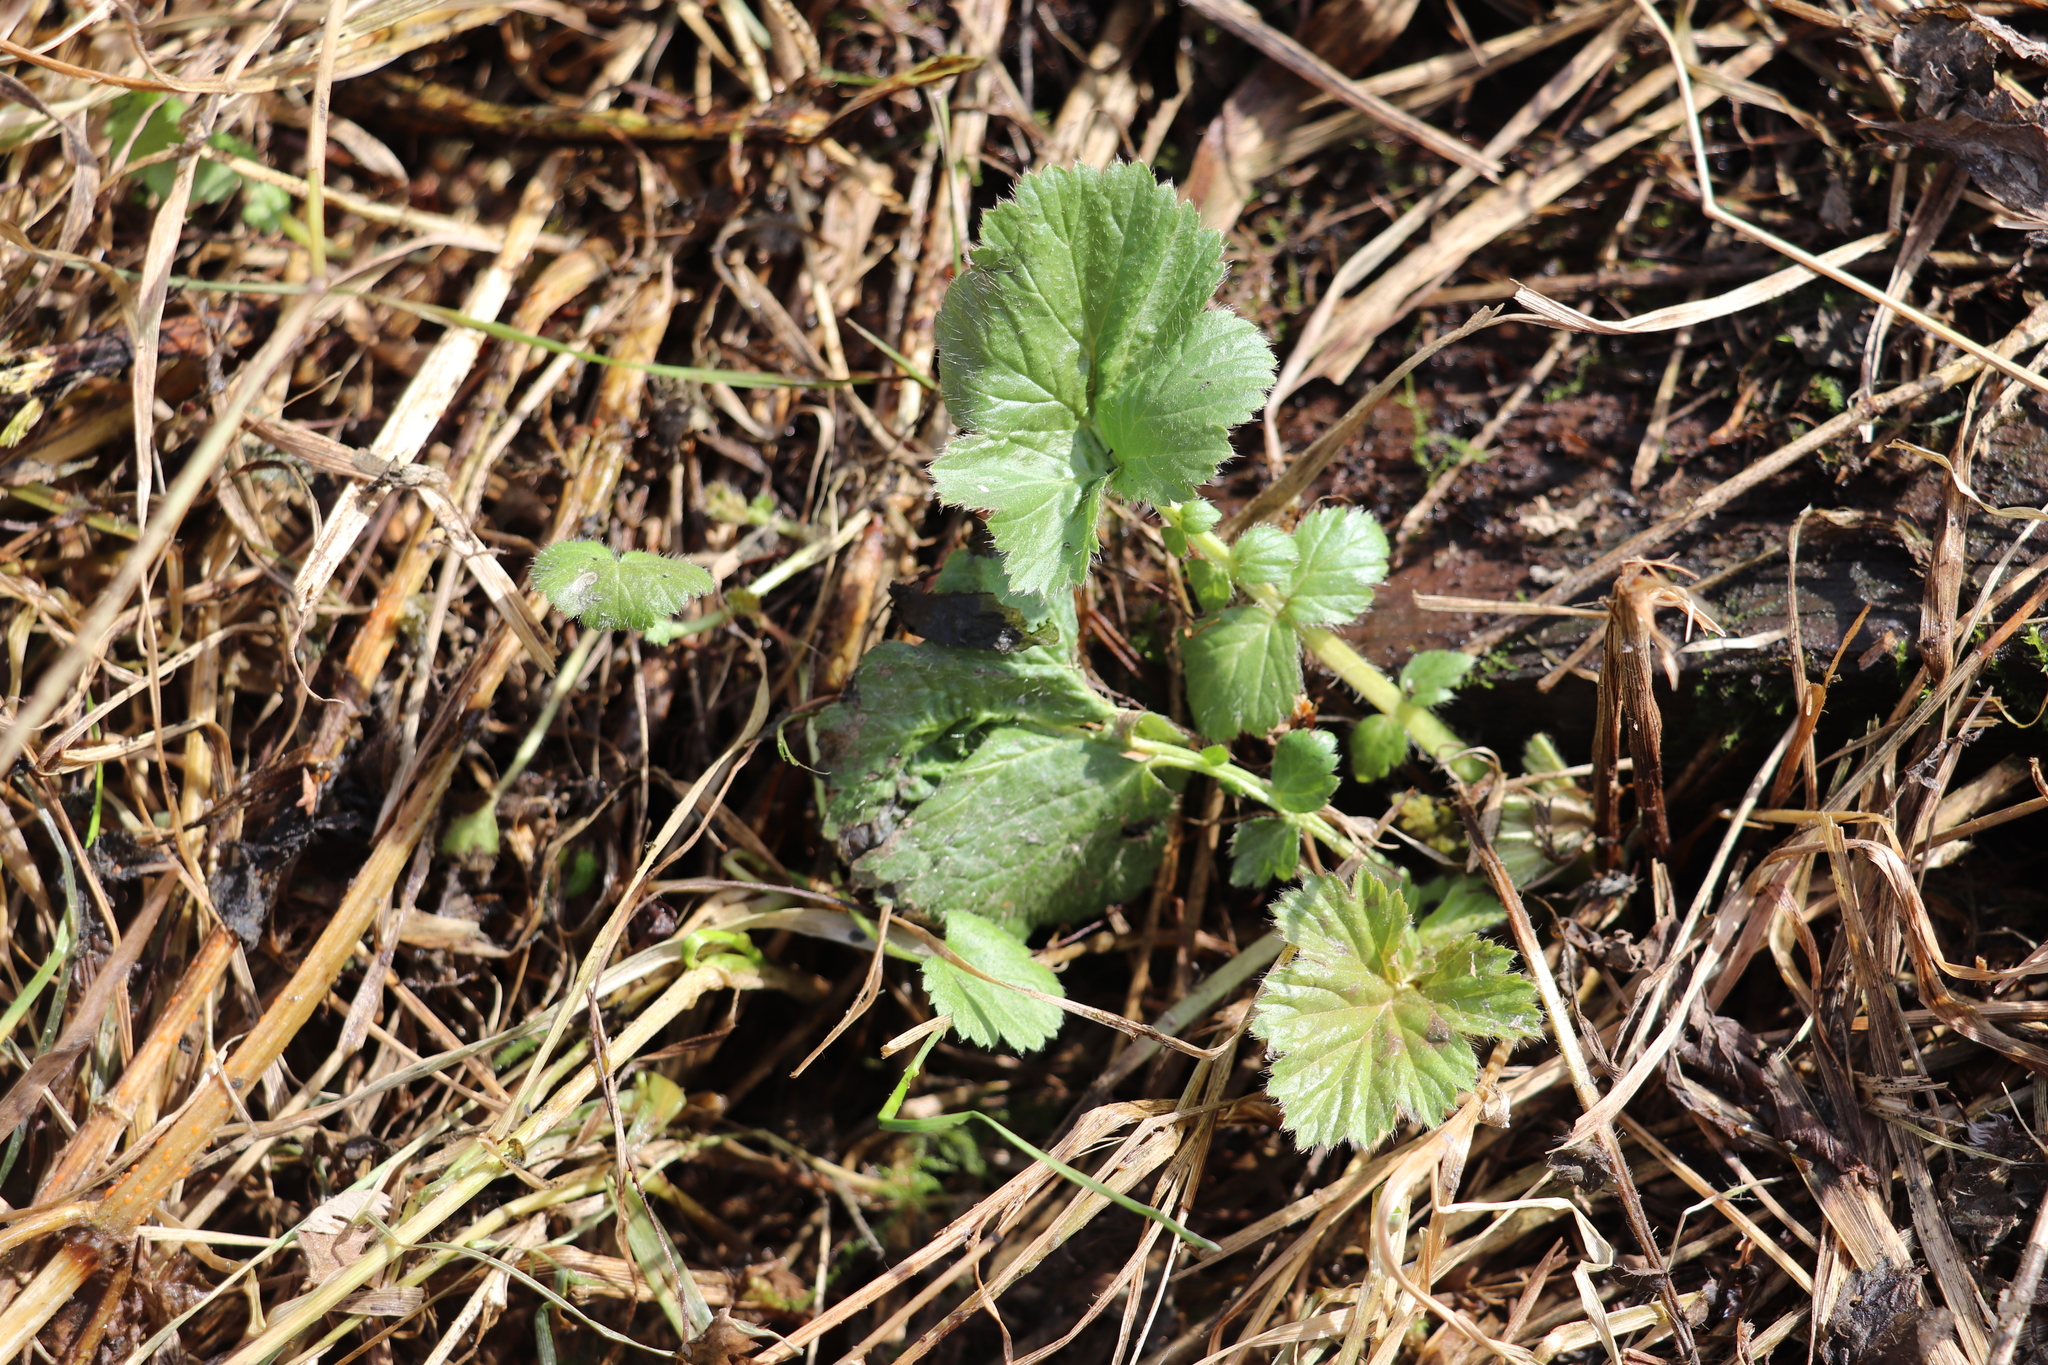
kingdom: Plantae
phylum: Tracheophyta
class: Magnoliopsida
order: Rosales
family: Rosaceae
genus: Geum
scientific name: Geum aleppicum
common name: Yellow avens
